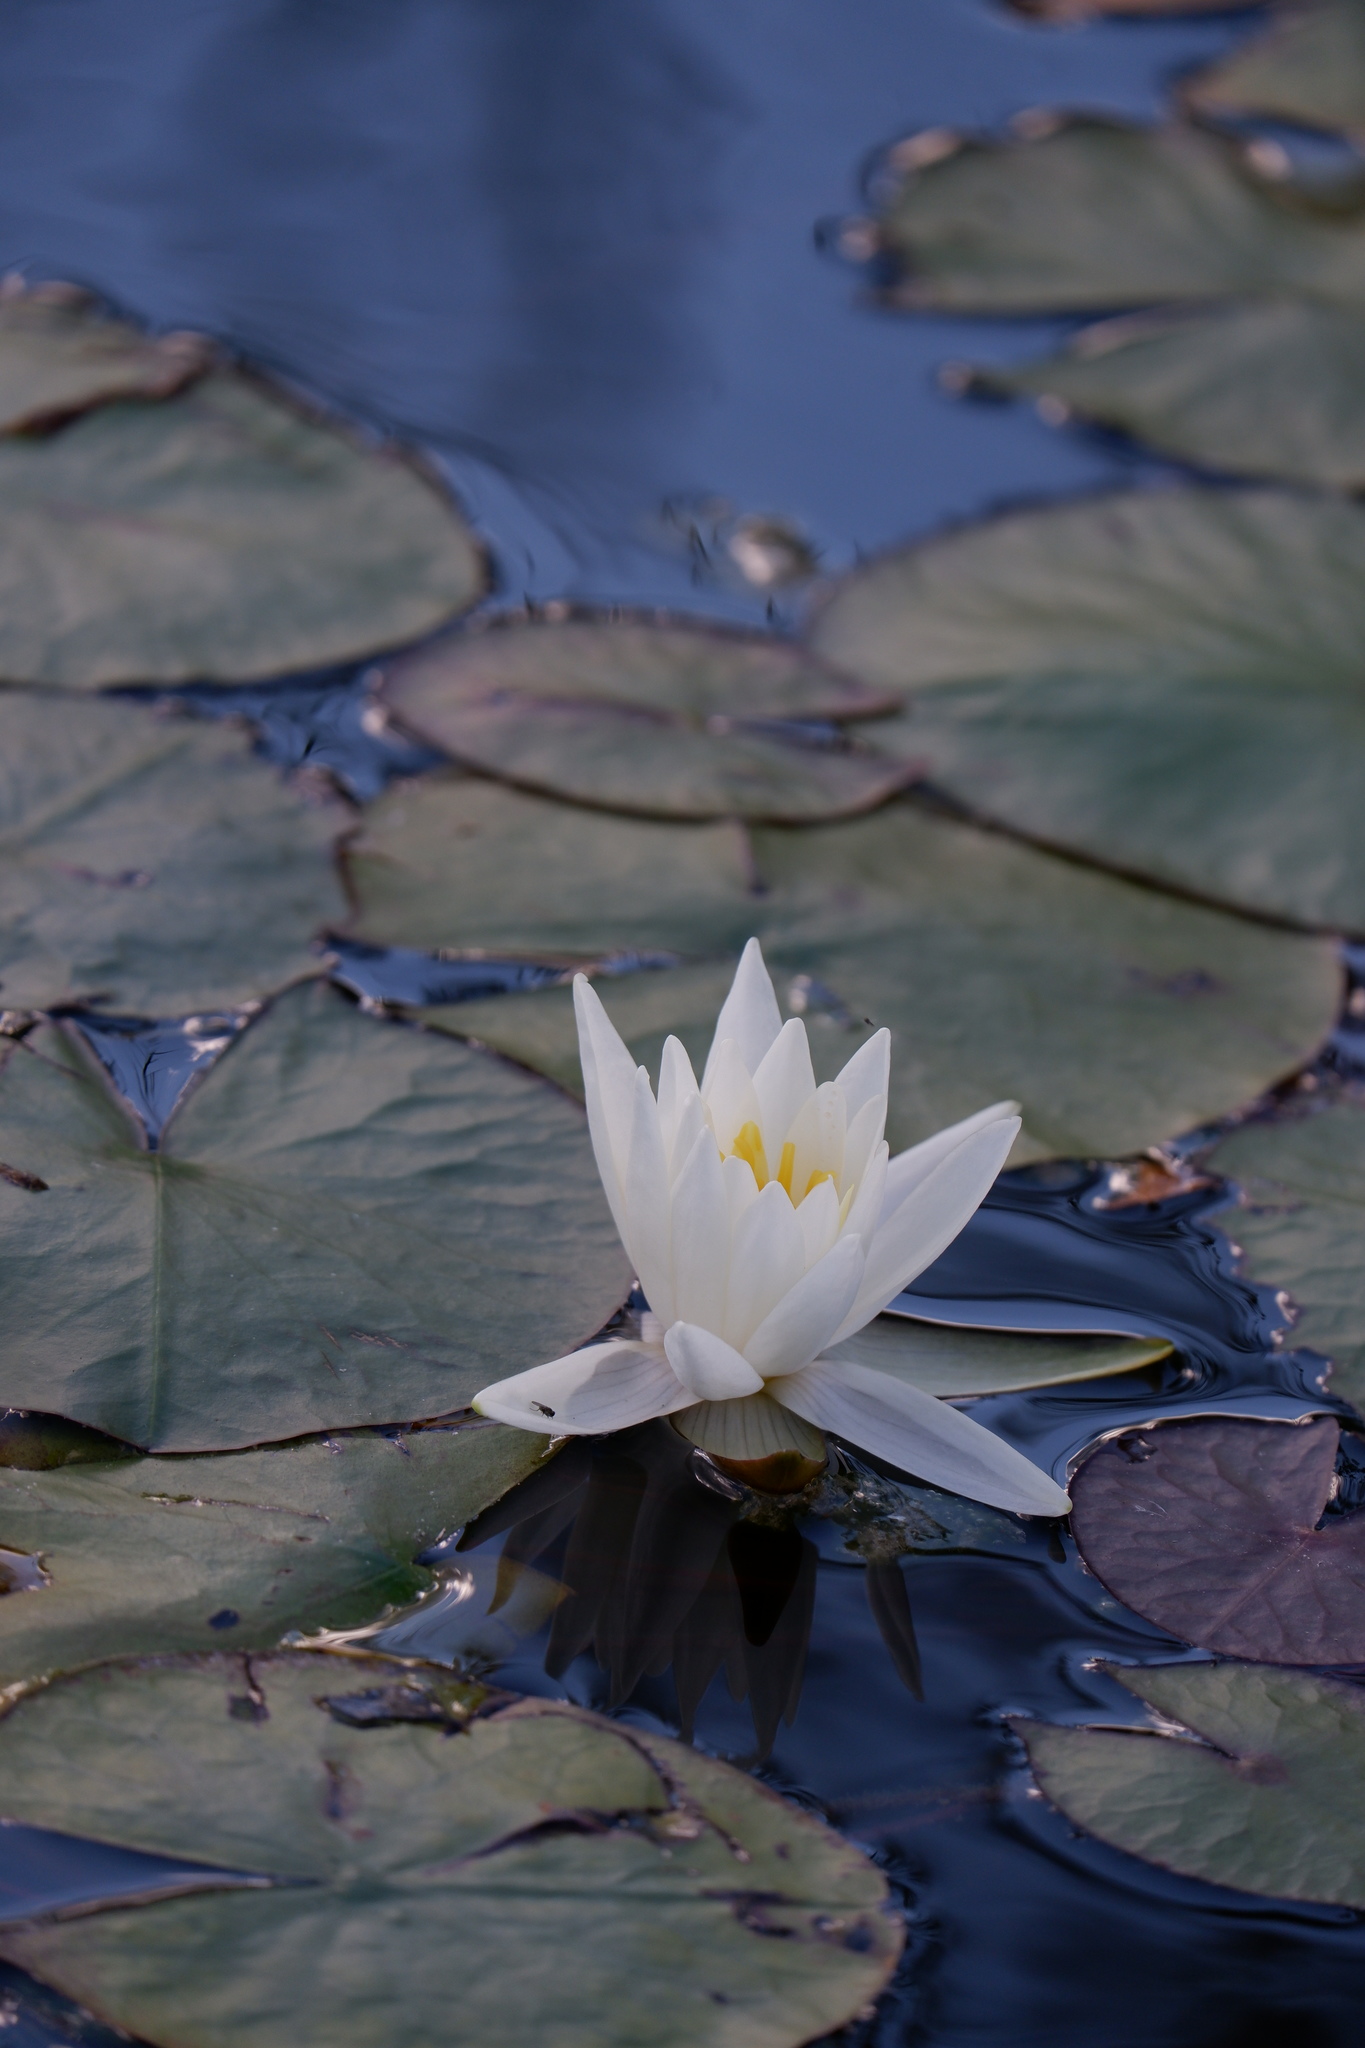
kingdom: Plantae
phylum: Tracheophyta
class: Magnoliopsida
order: Nymphaeales
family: Nymphaeaceae
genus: Nymphaea
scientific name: Nymphaea odorata
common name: Fragrant water-lily
